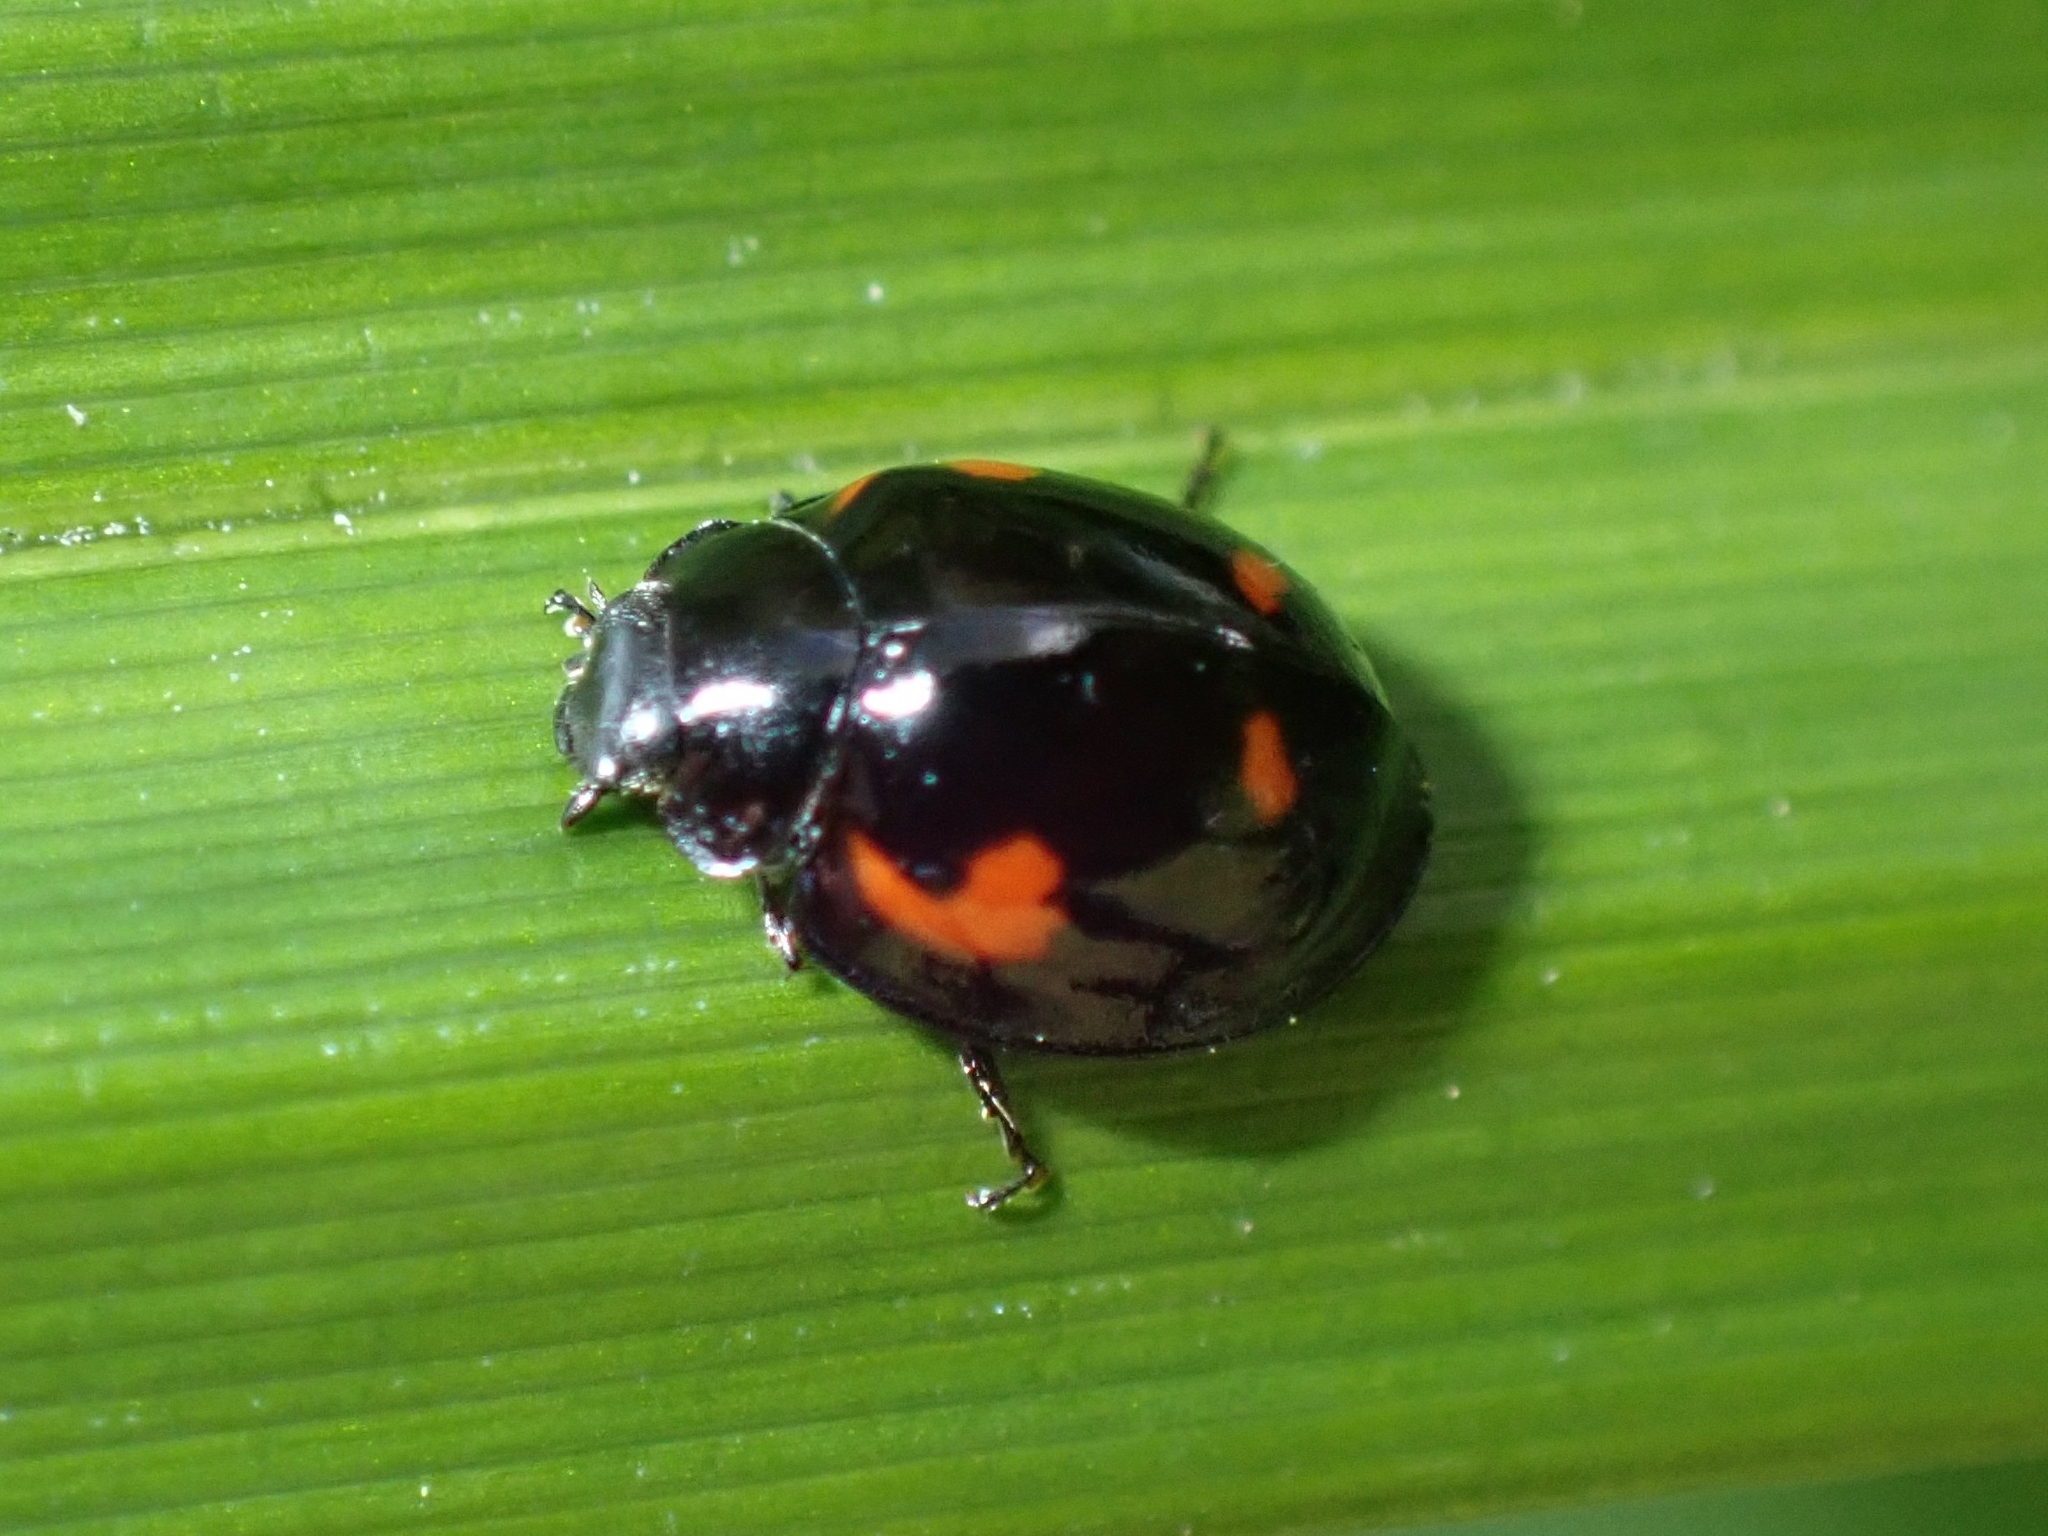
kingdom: Animalia
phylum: Arthropoda
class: Insecta
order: Coleoptera
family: Coccinellidae
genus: Brumus
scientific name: Brumus quadripustulatus
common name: Ladybird beetle
